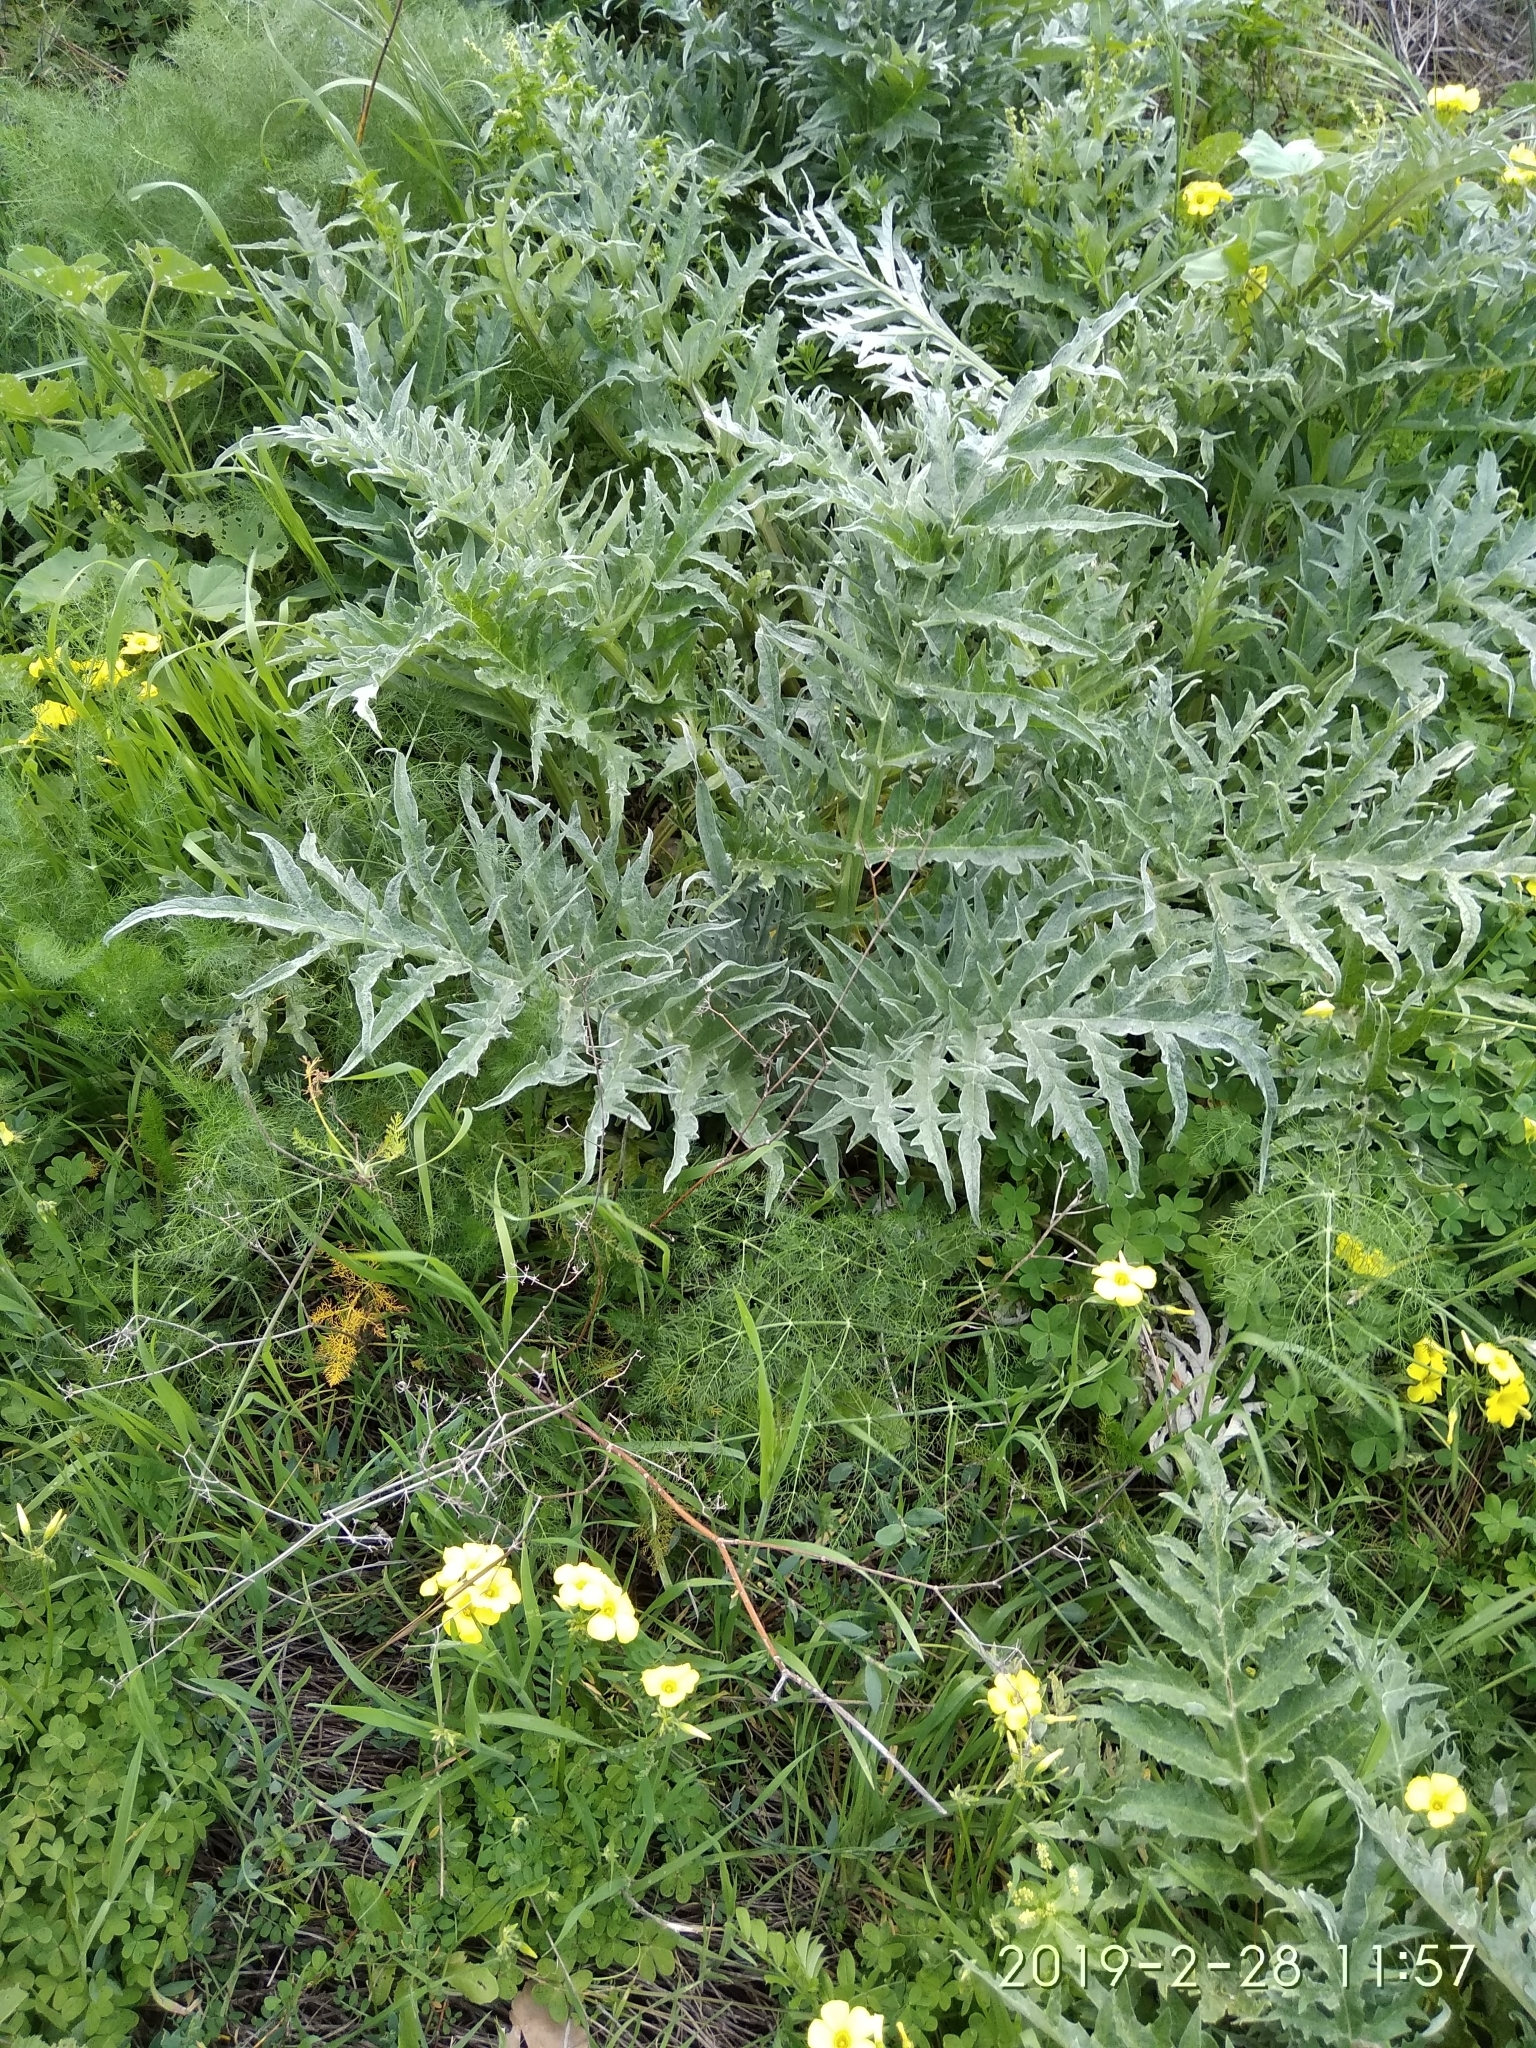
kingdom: Plantae
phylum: Tracheophyta
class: Magnoliopsida
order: Asterales
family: Asteraceae
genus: Cynara
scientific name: Cynara cardunculus
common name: Globe artichoke
